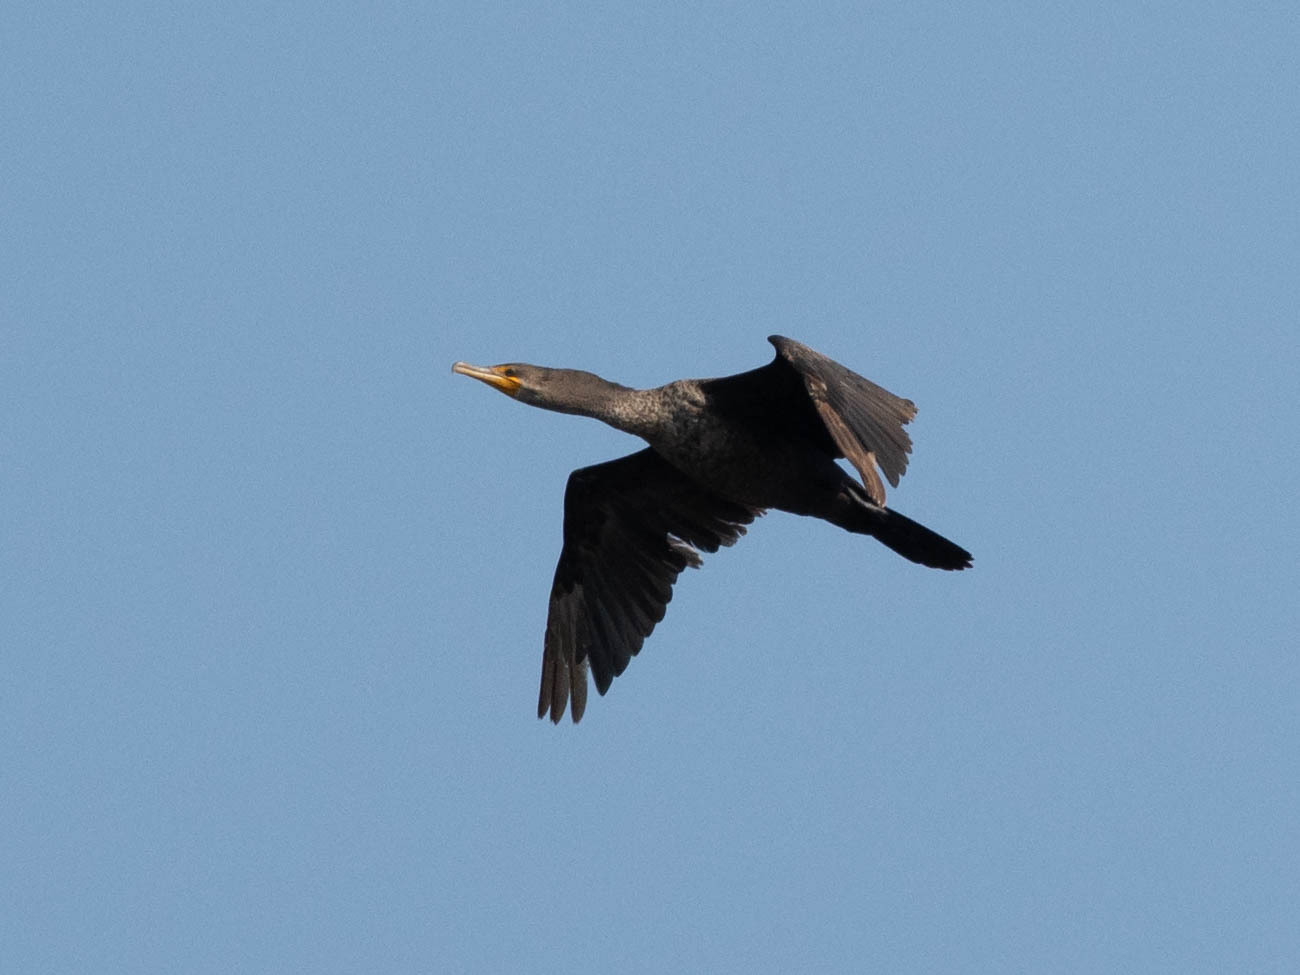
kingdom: Animalia
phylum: Chordata
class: Aves
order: Suliformes
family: Phalacrocoracidae
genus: Phalacrocorax
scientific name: Phalacrocorax auritus
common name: Double-crested cormorant
